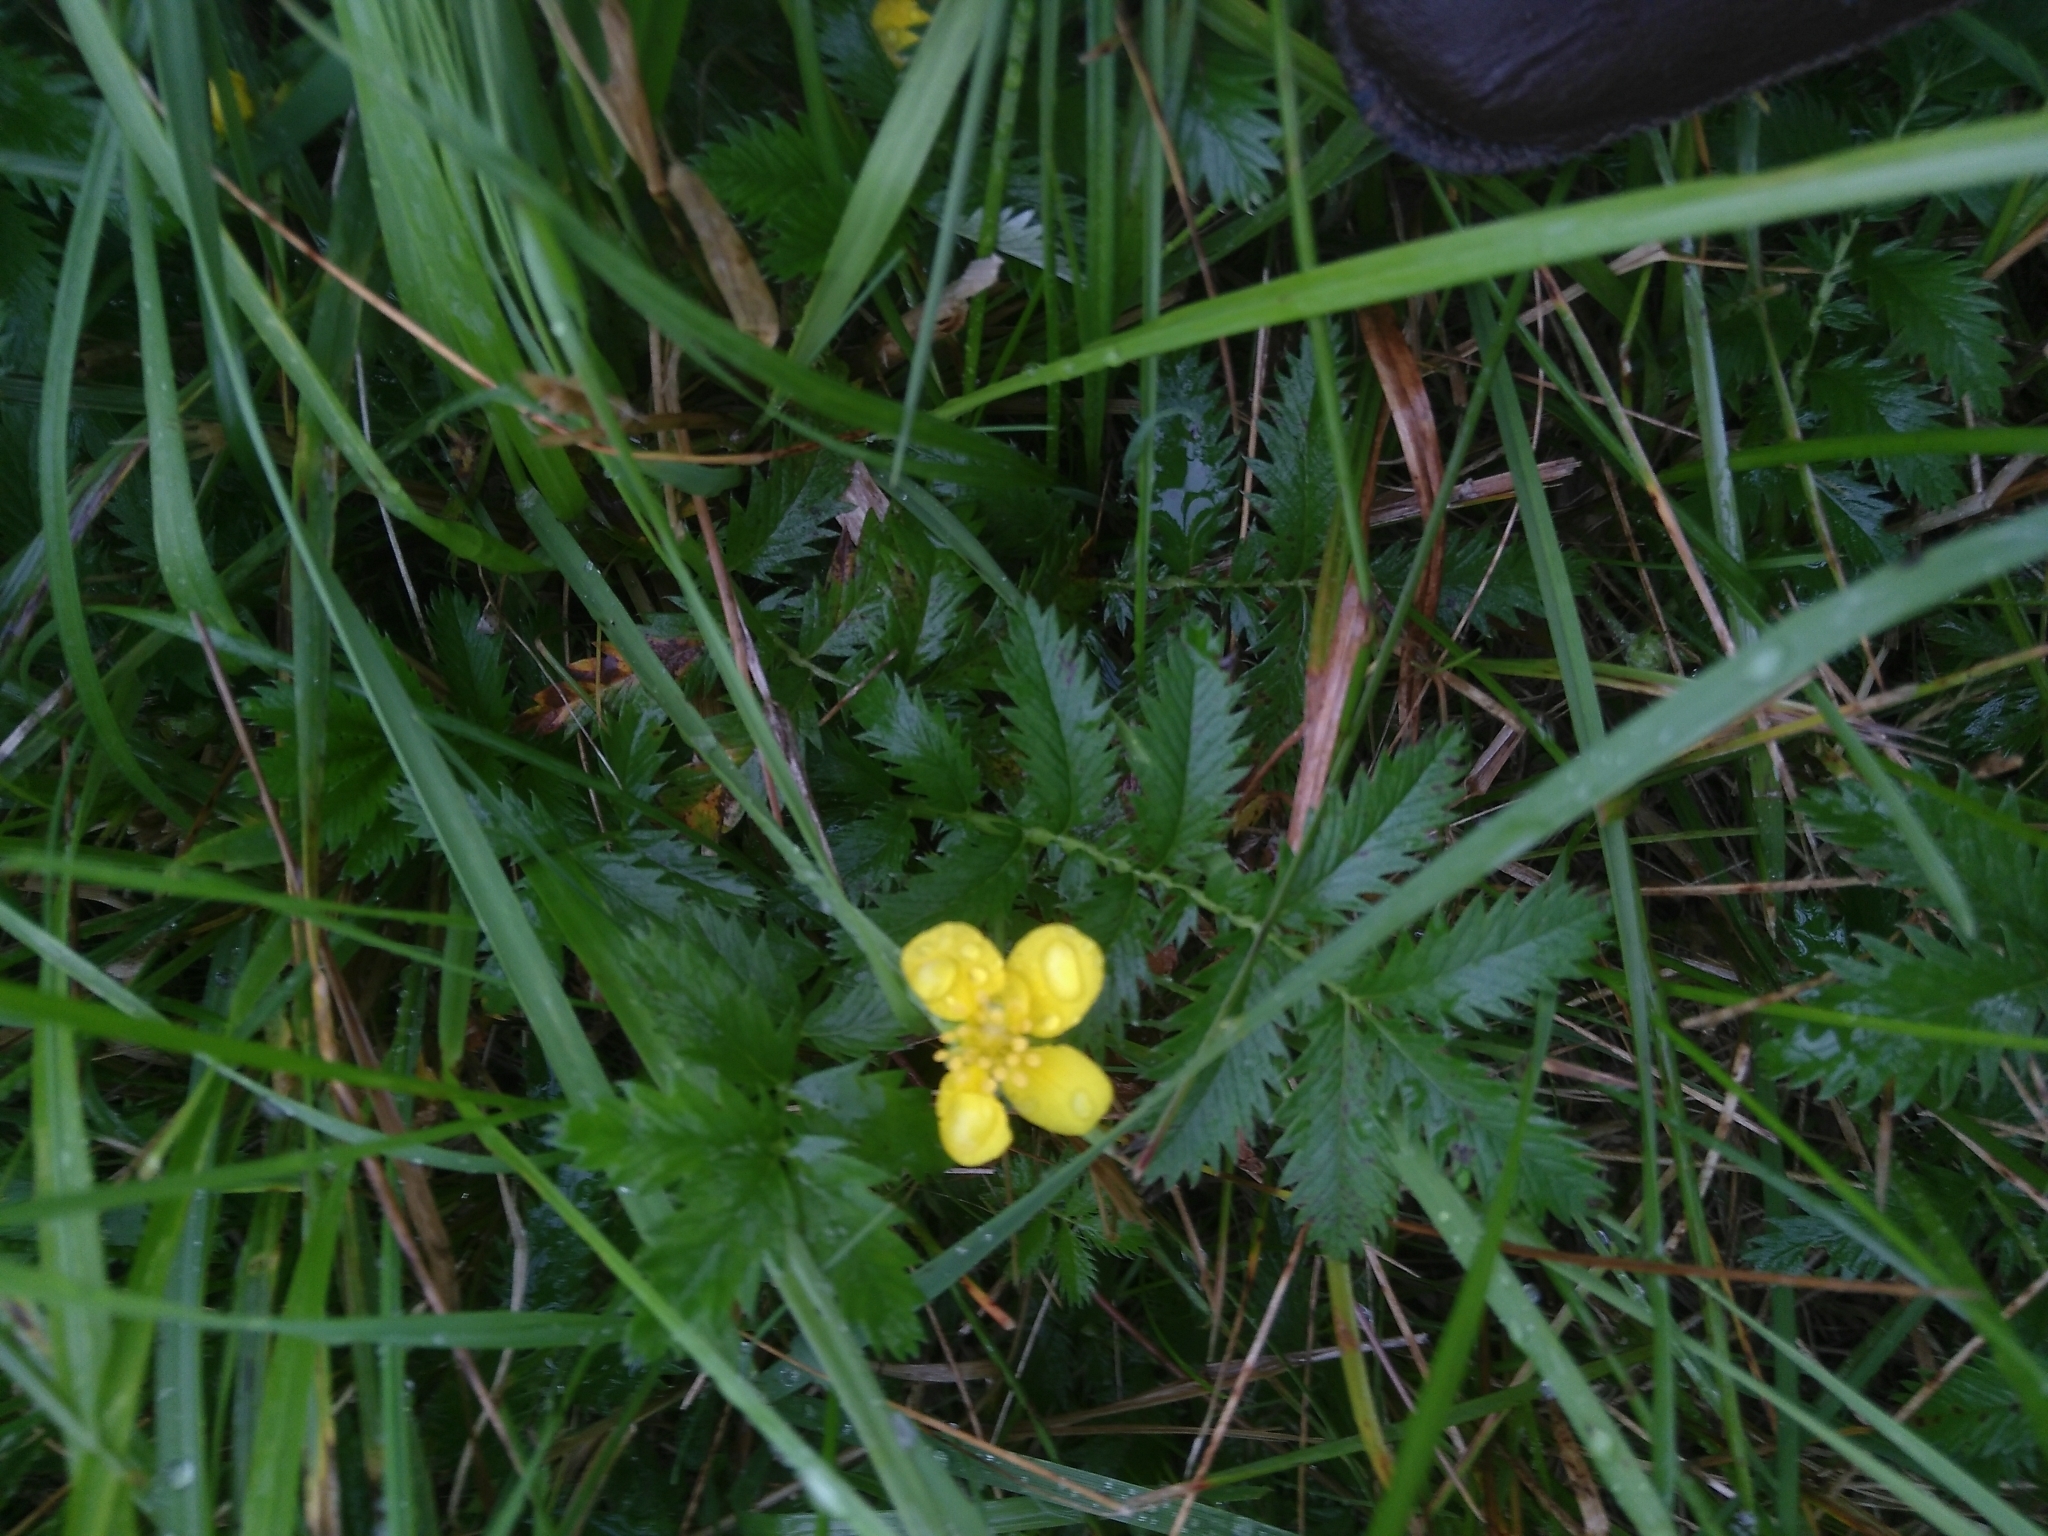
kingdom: Plantae
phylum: Tracheophyta
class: Magnoliopsida
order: Rosales
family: Rosaceae
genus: Argentina
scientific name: Argentina anserina
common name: Common silverweed
